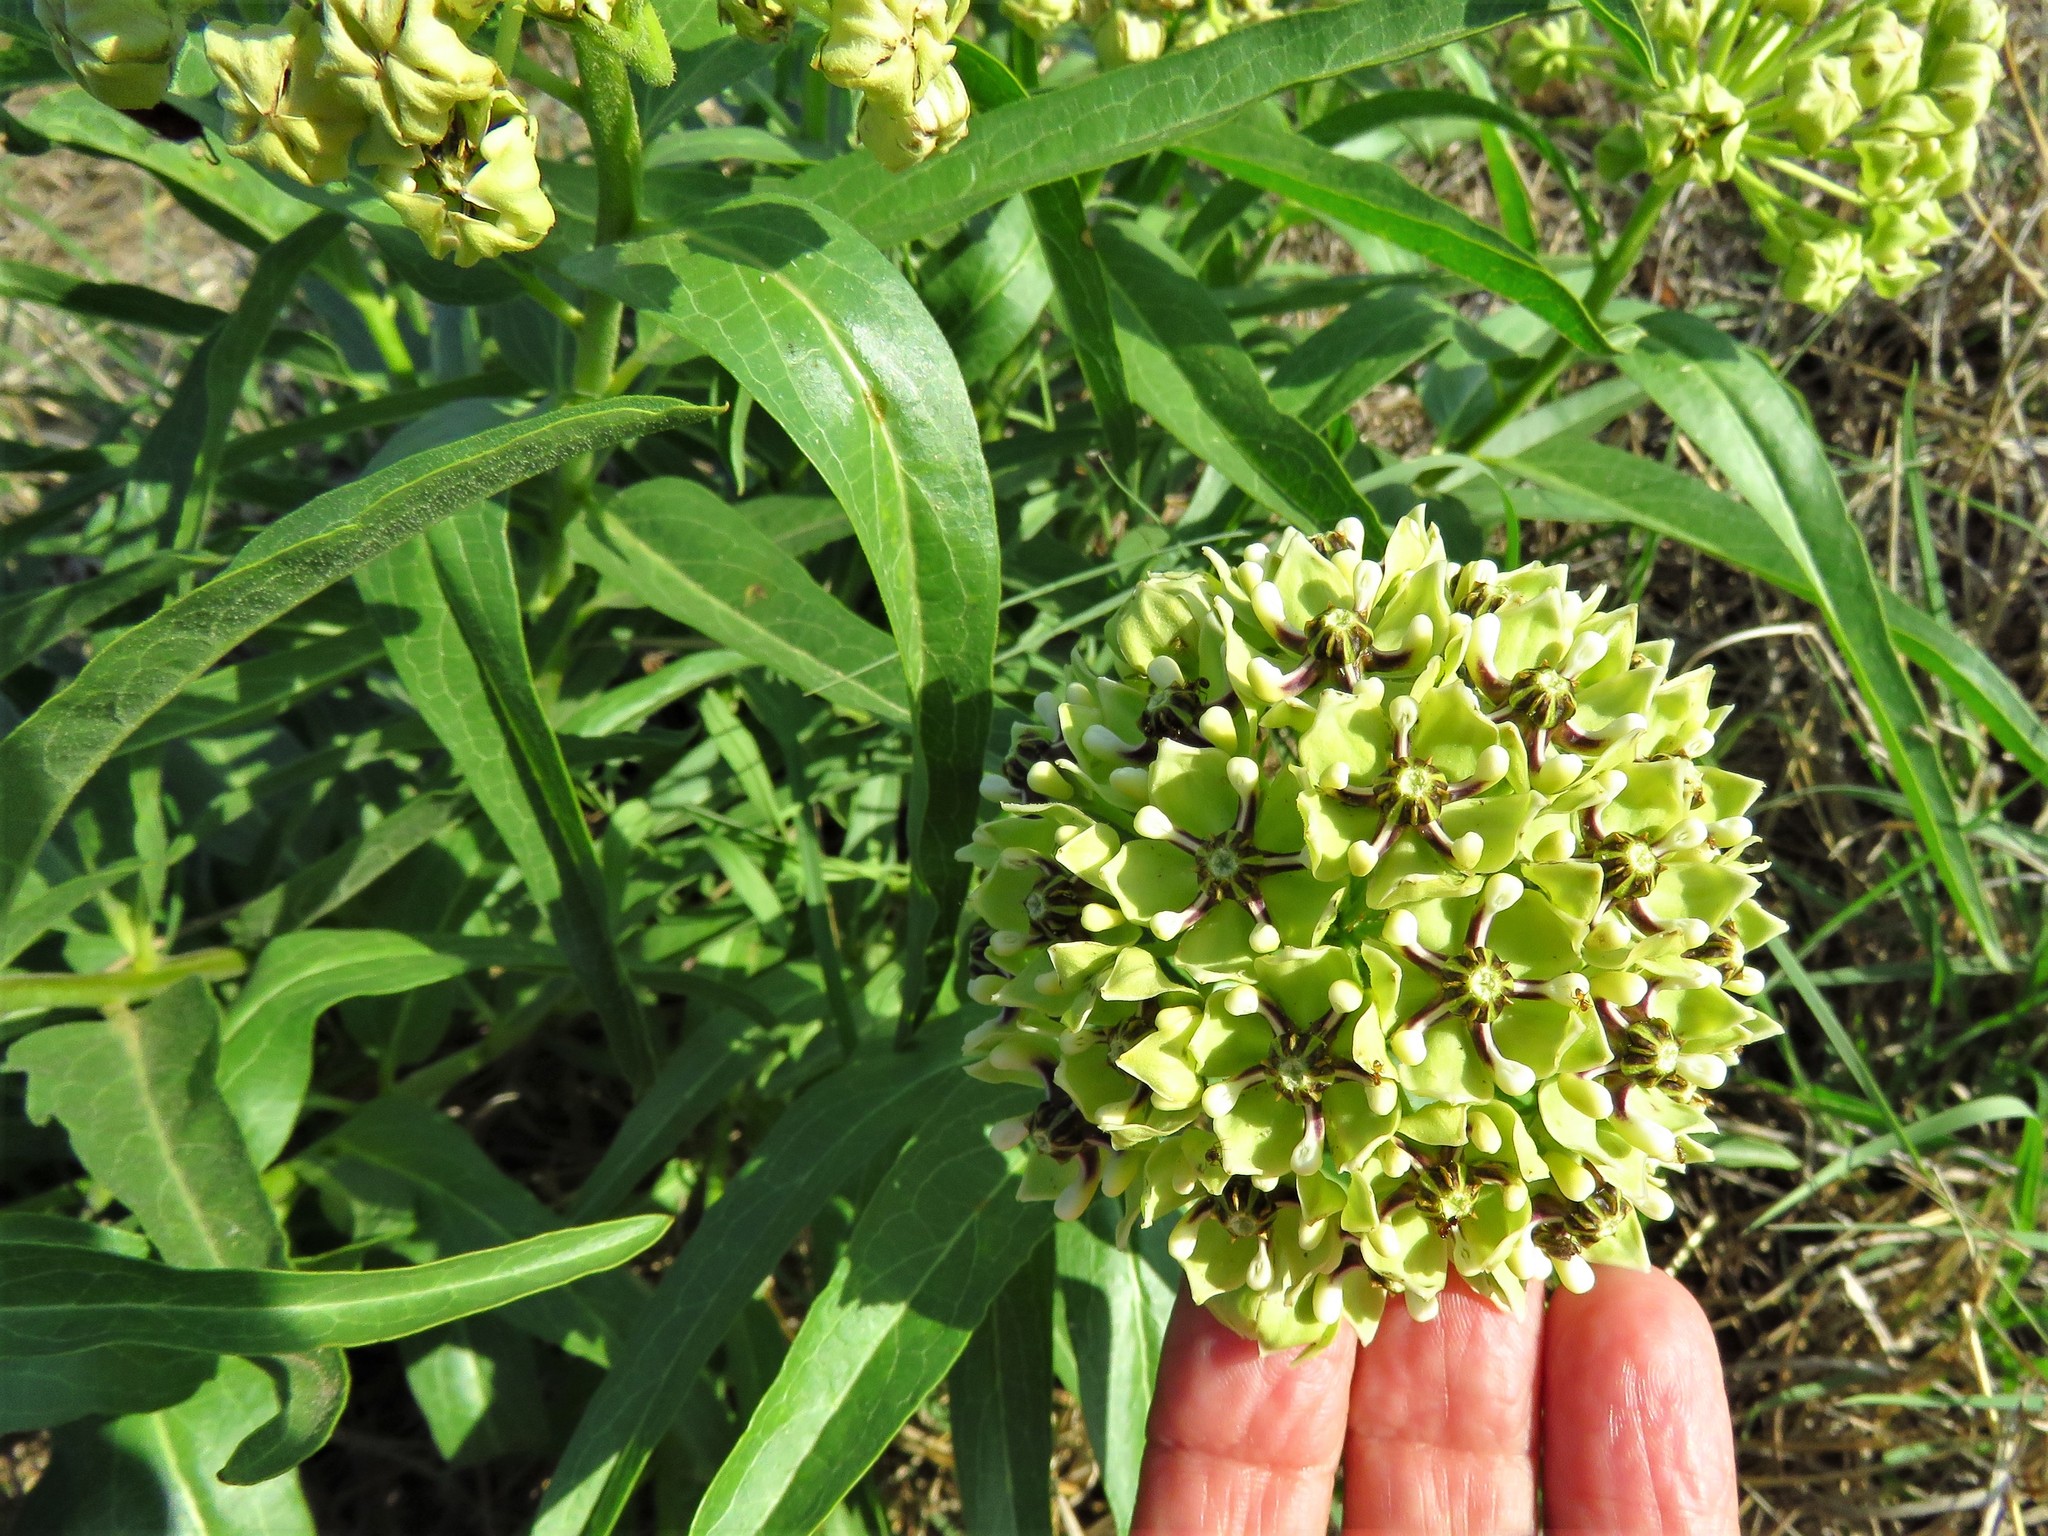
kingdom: Plantae
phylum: Tracheophyta
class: Magnoliopsida
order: Gentianales
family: Apocynaceae
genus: Asclepias
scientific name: Asclepias asperula
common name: Antelope horns
